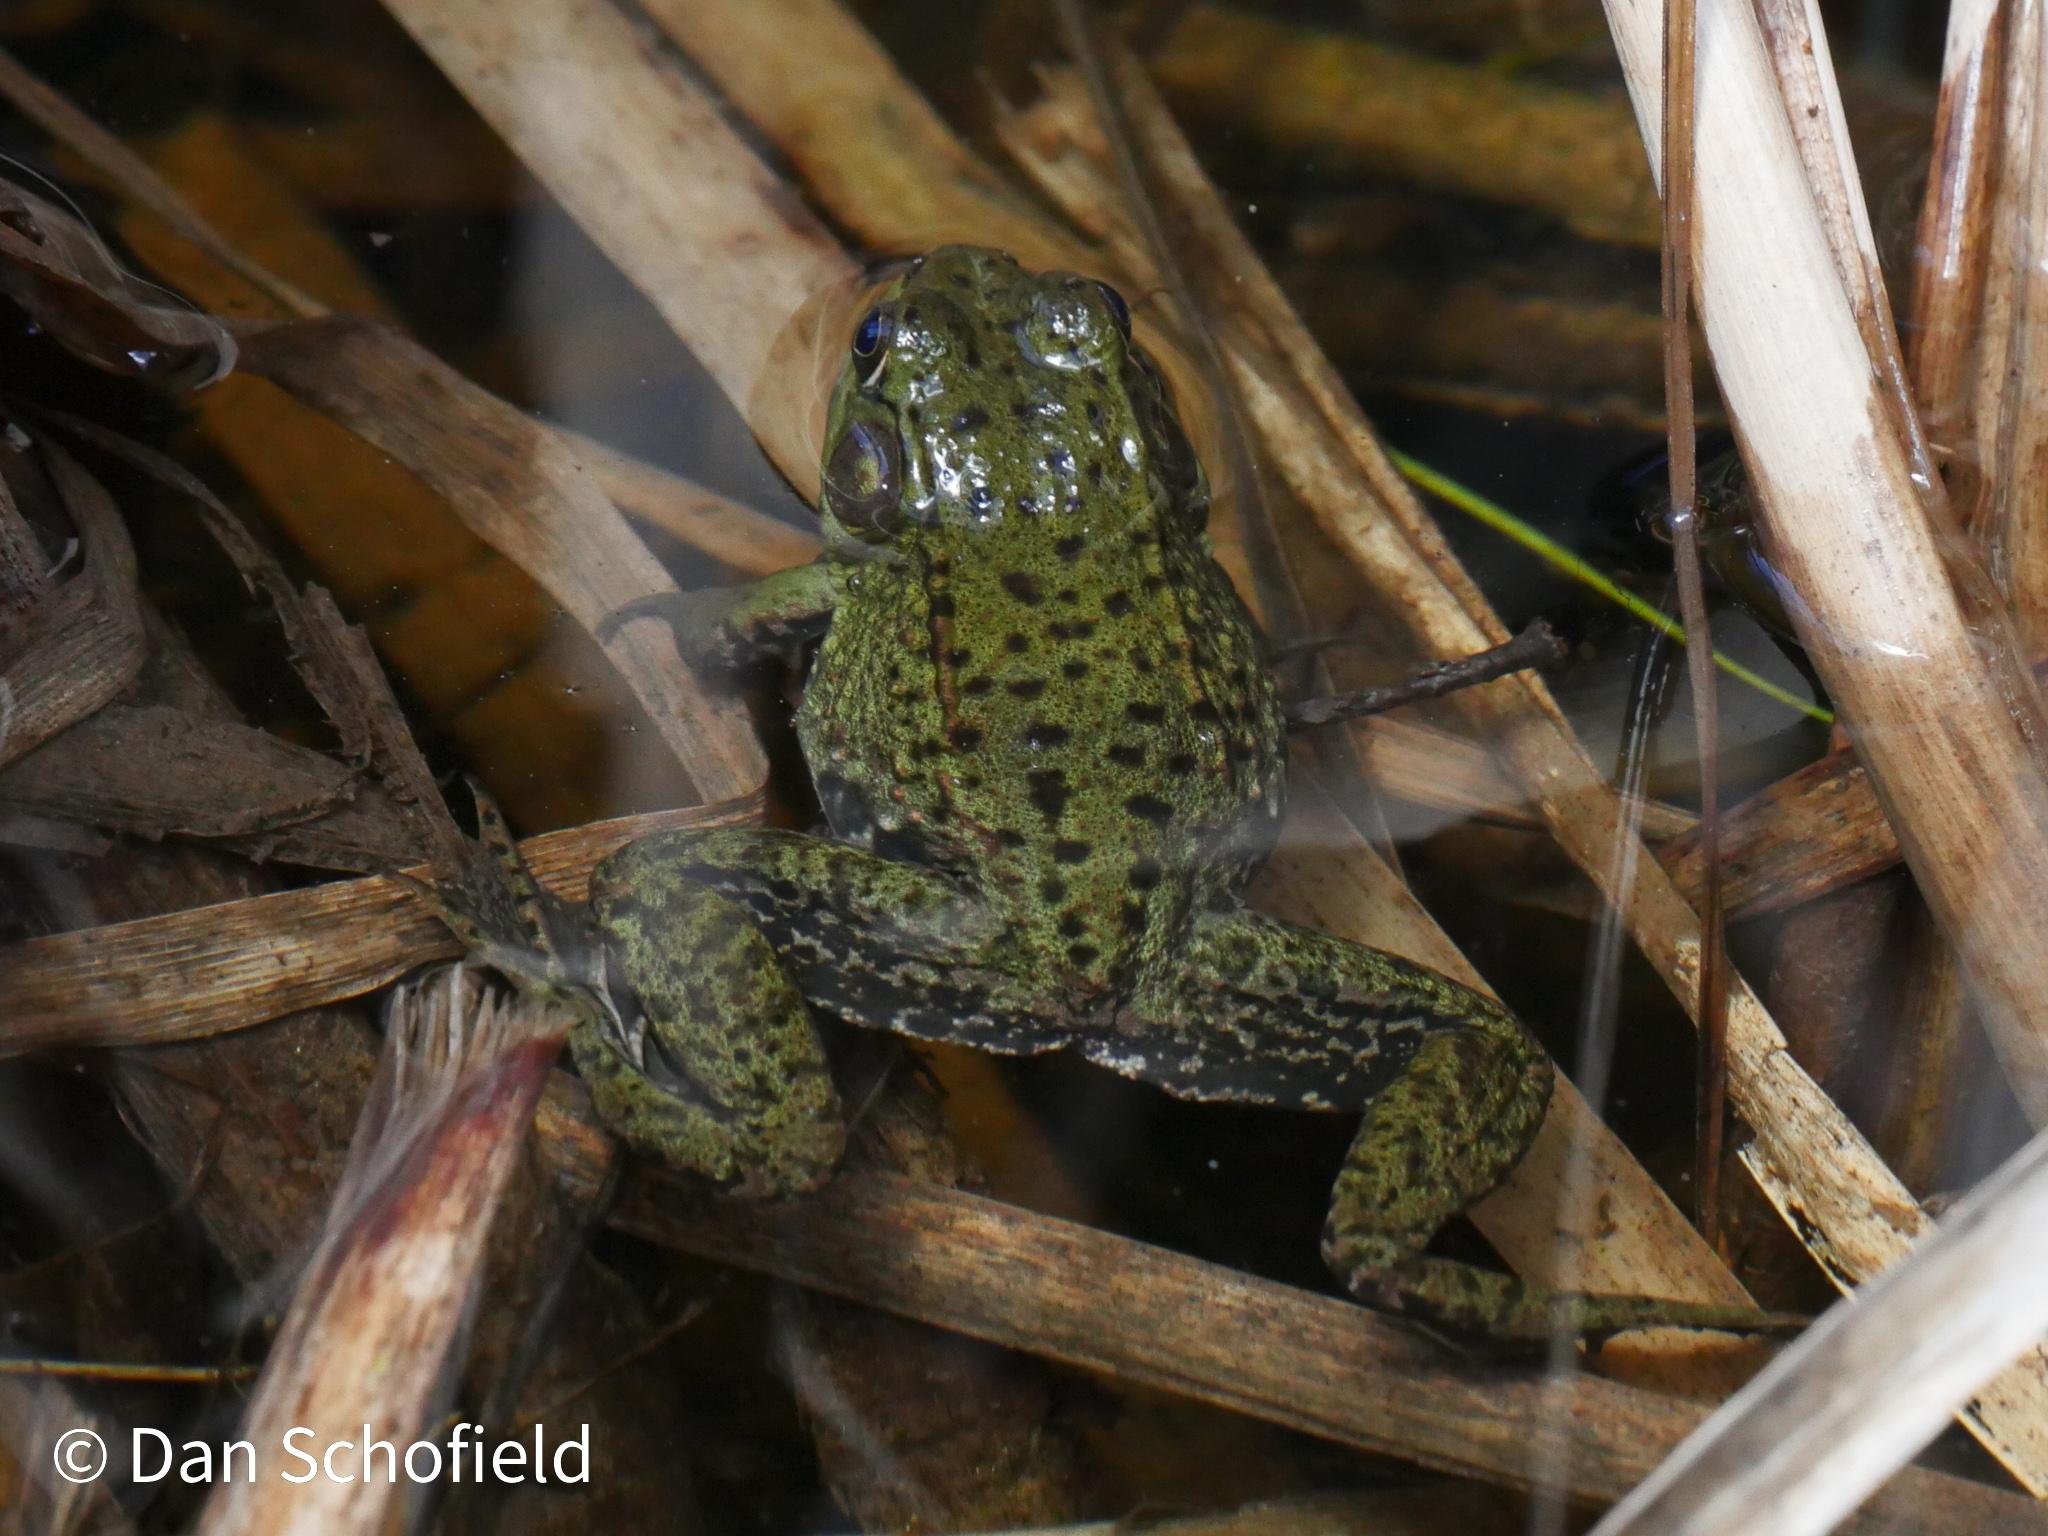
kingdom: Animalia
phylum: Chordata
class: Amphibia
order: Anura
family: Ranidae
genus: Lithobates
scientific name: Lithobates clamitans
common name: Green frog
